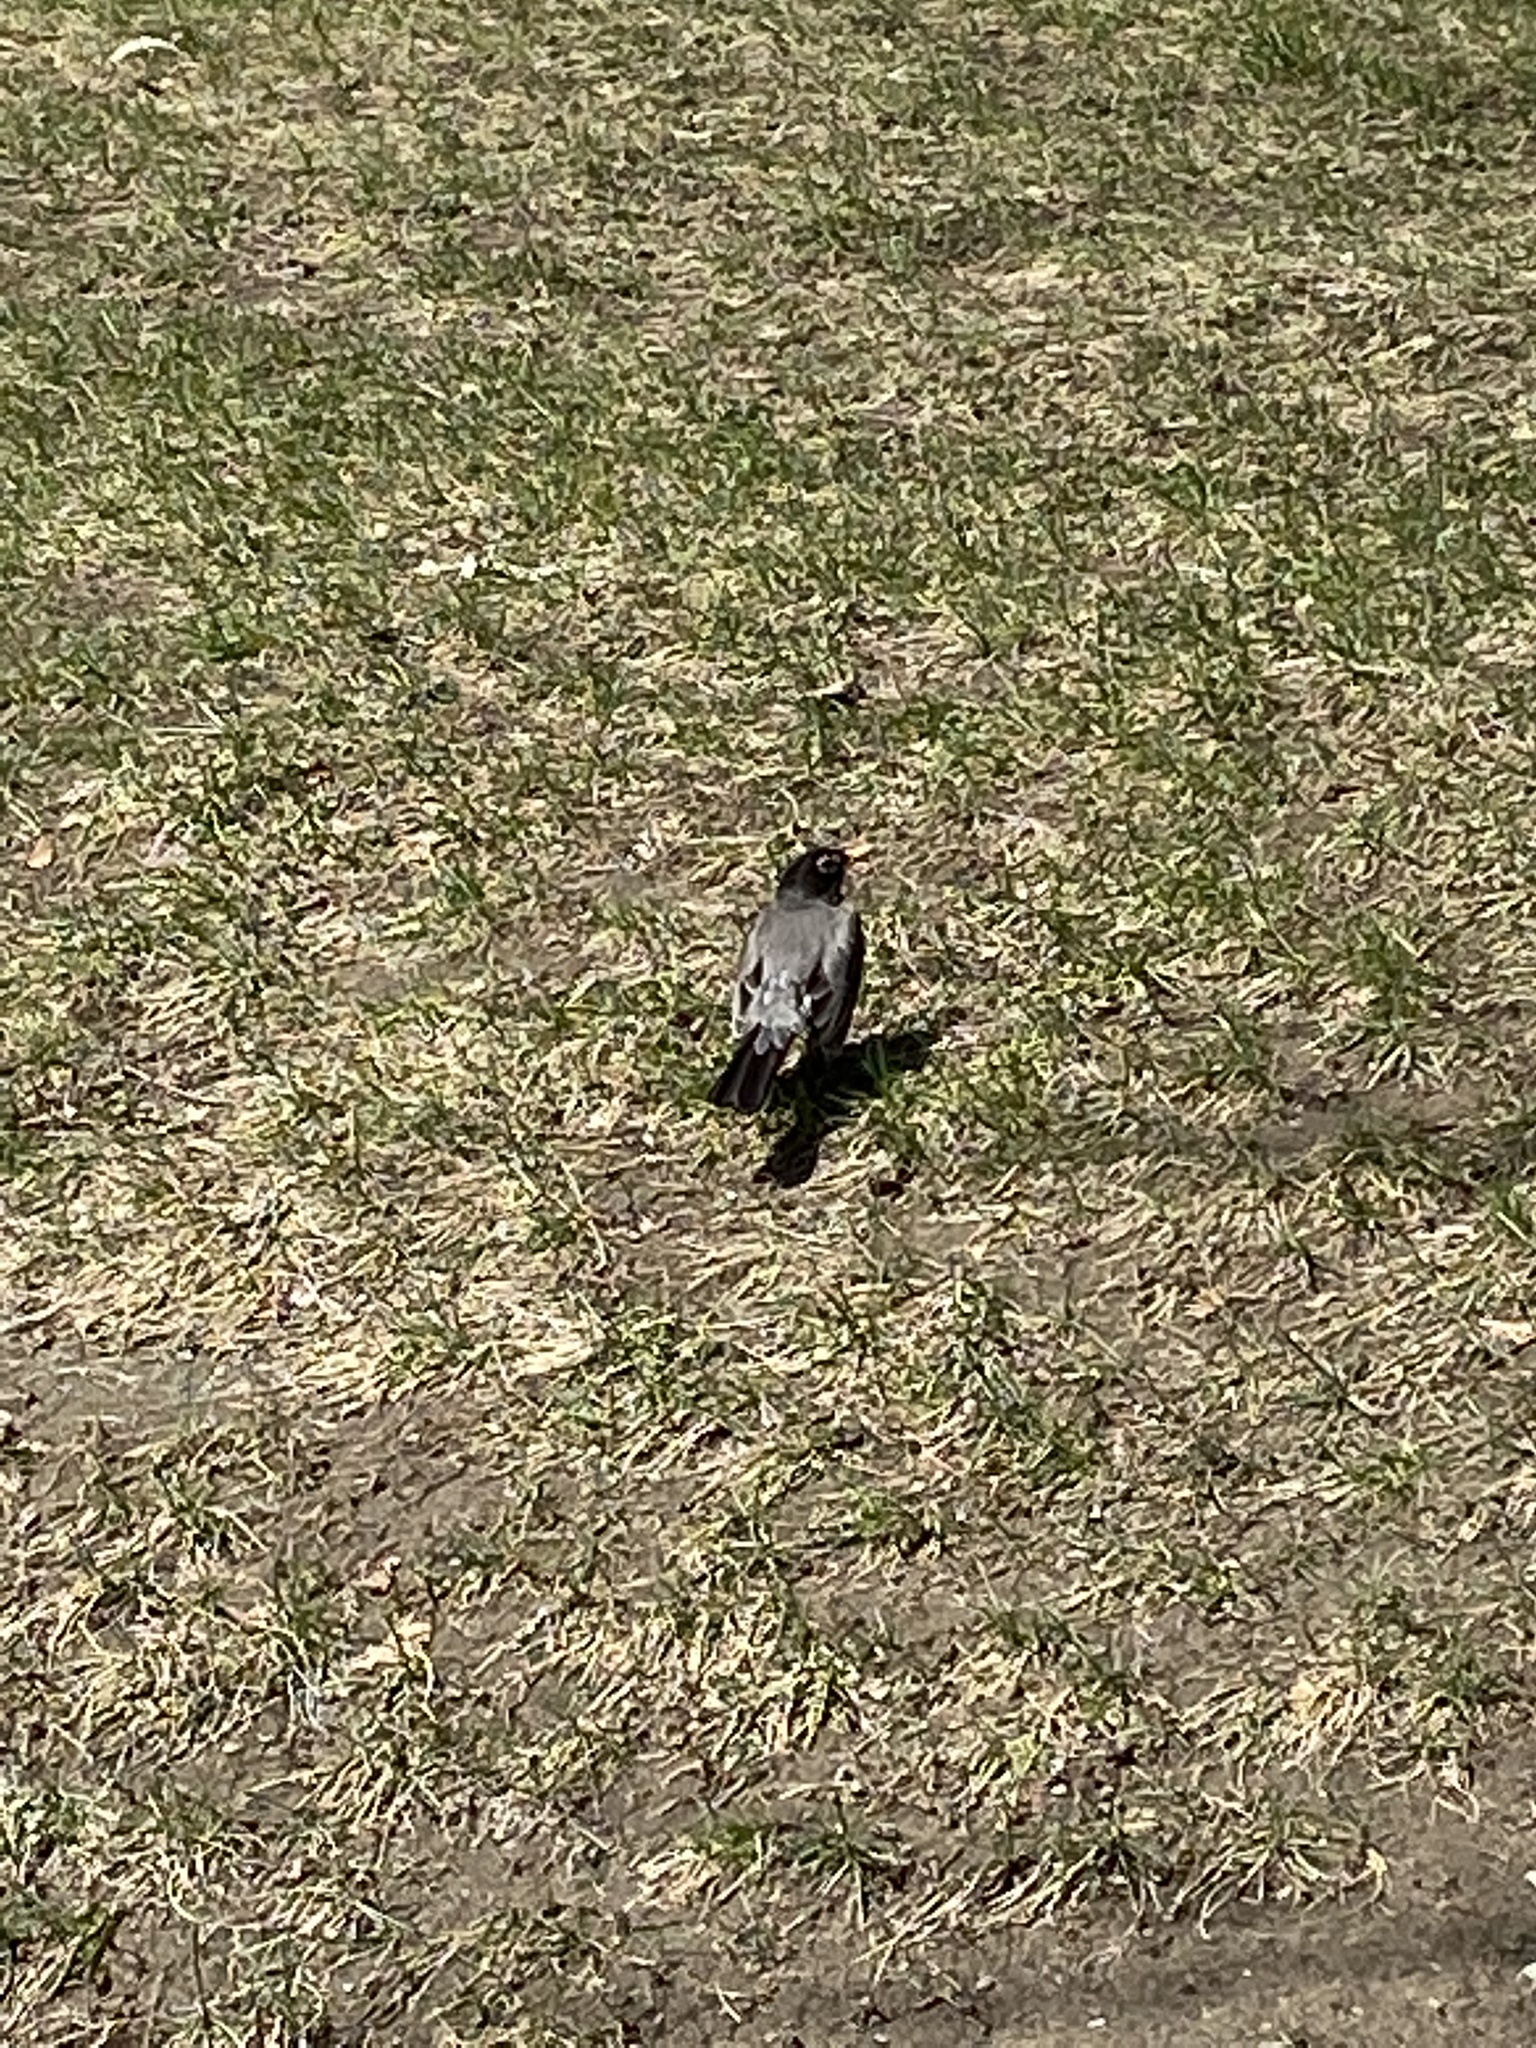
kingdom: Animalia
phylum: Chordata
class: Aves
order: Passeriformes
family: Turdidae
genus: Turdus
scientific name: Turdus migratorius
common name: American robin
